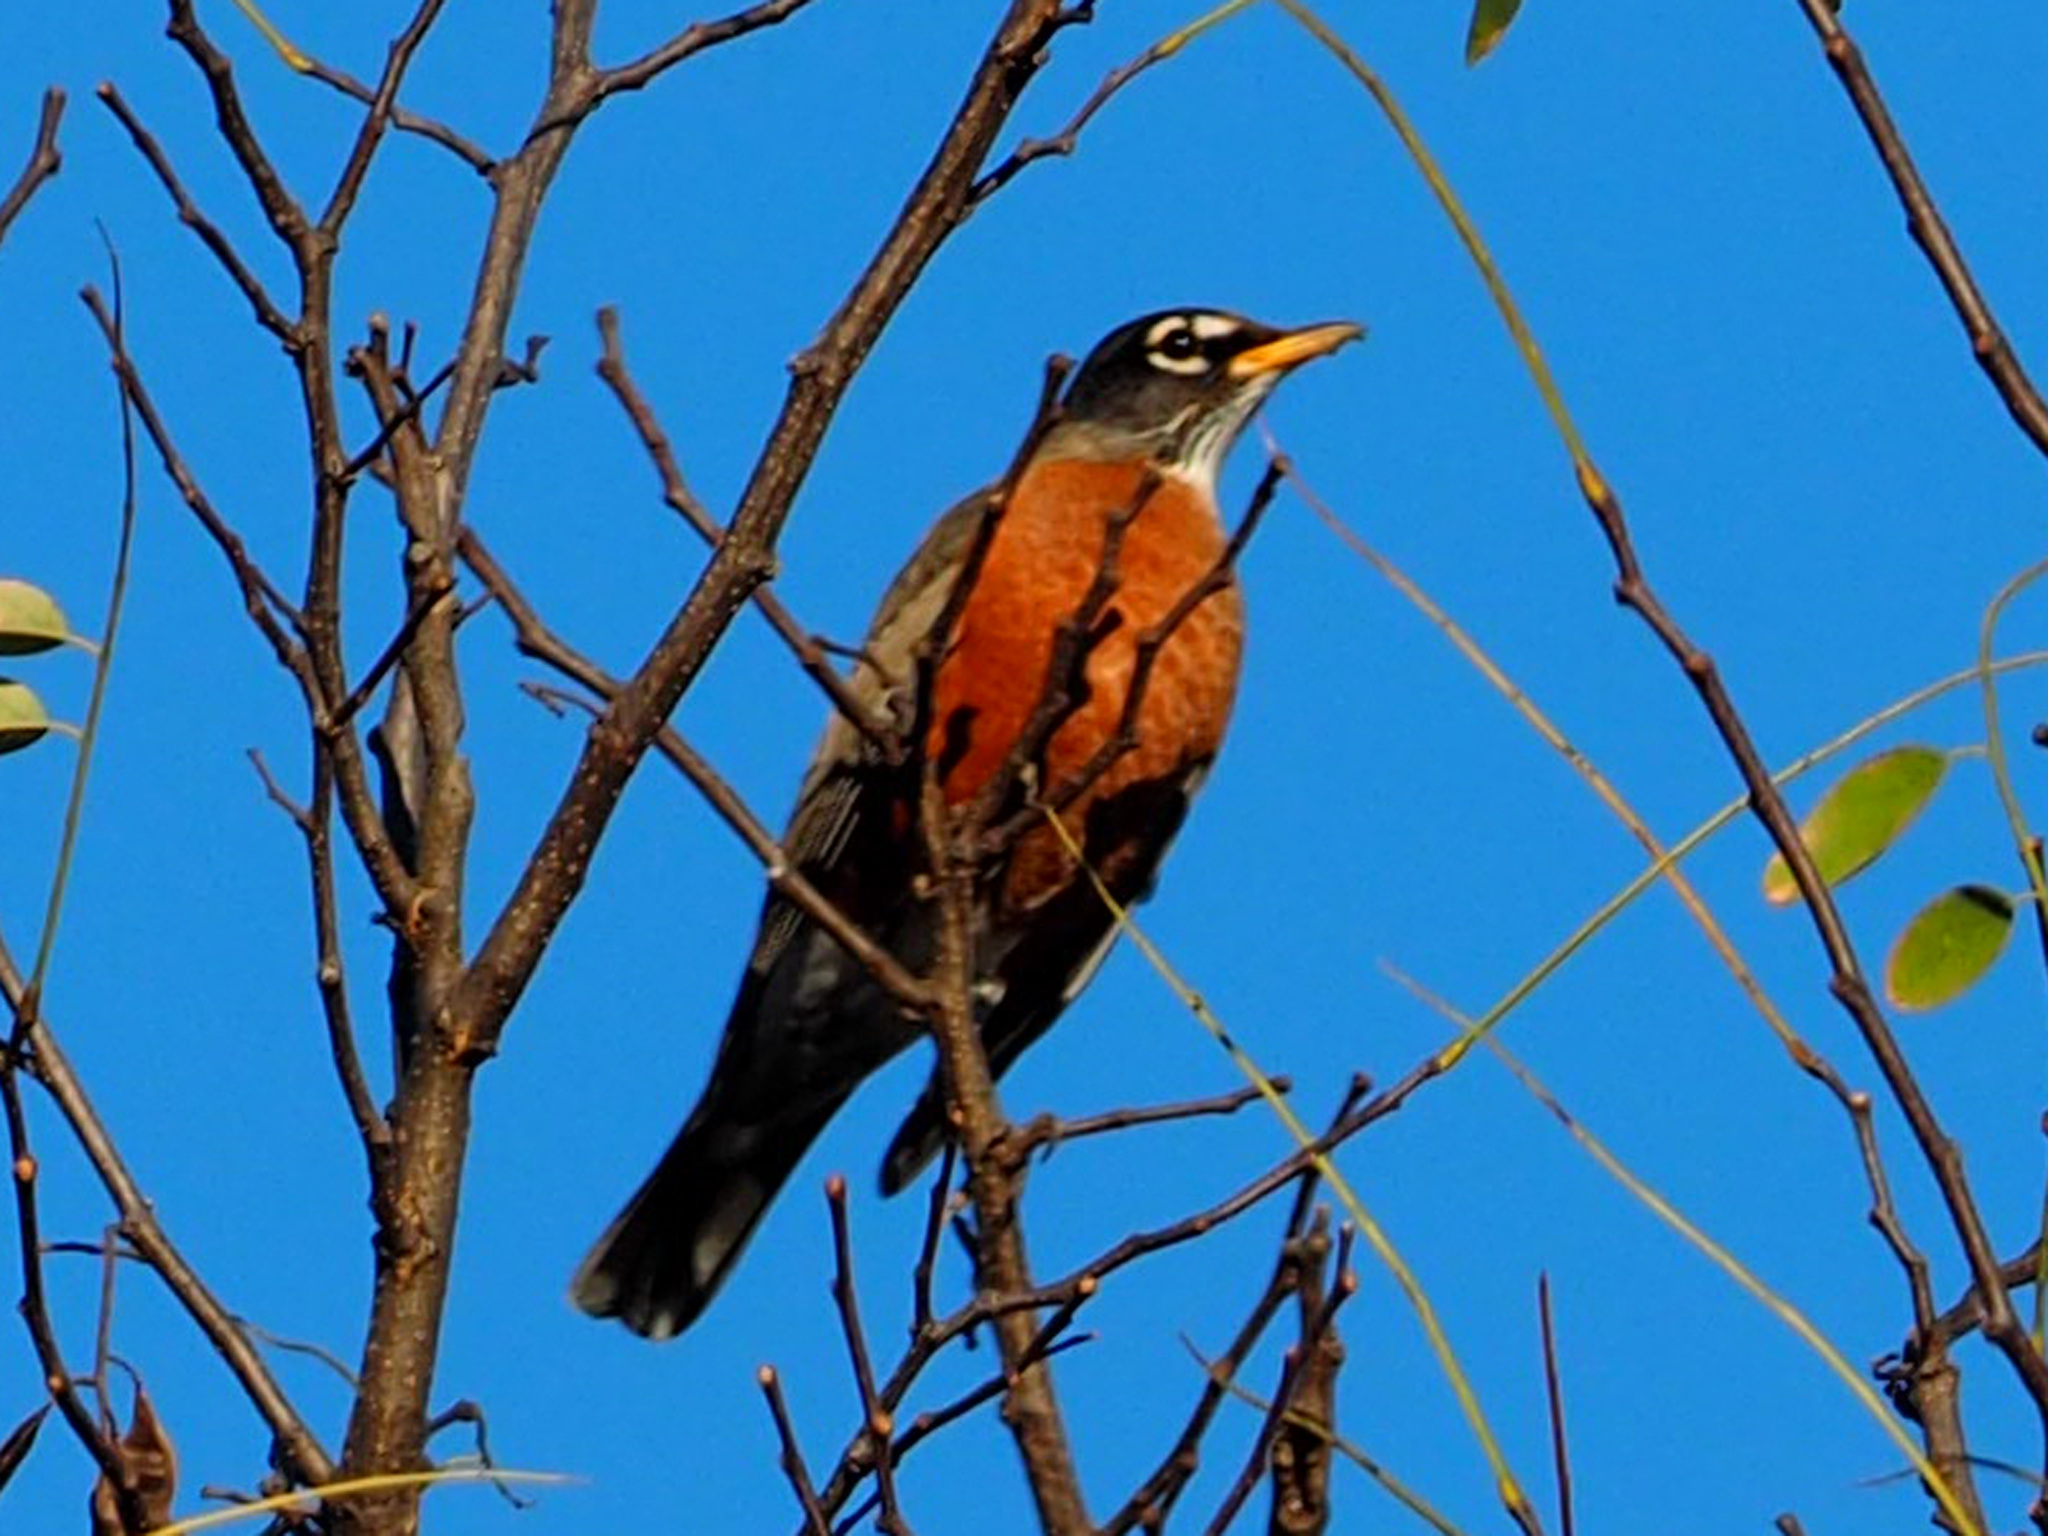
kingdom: Animalia
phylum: Chordata
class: Aves
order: Passeriformes
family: Turdidae
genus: Turdus
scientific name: Turdus migratorius
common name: American robin
